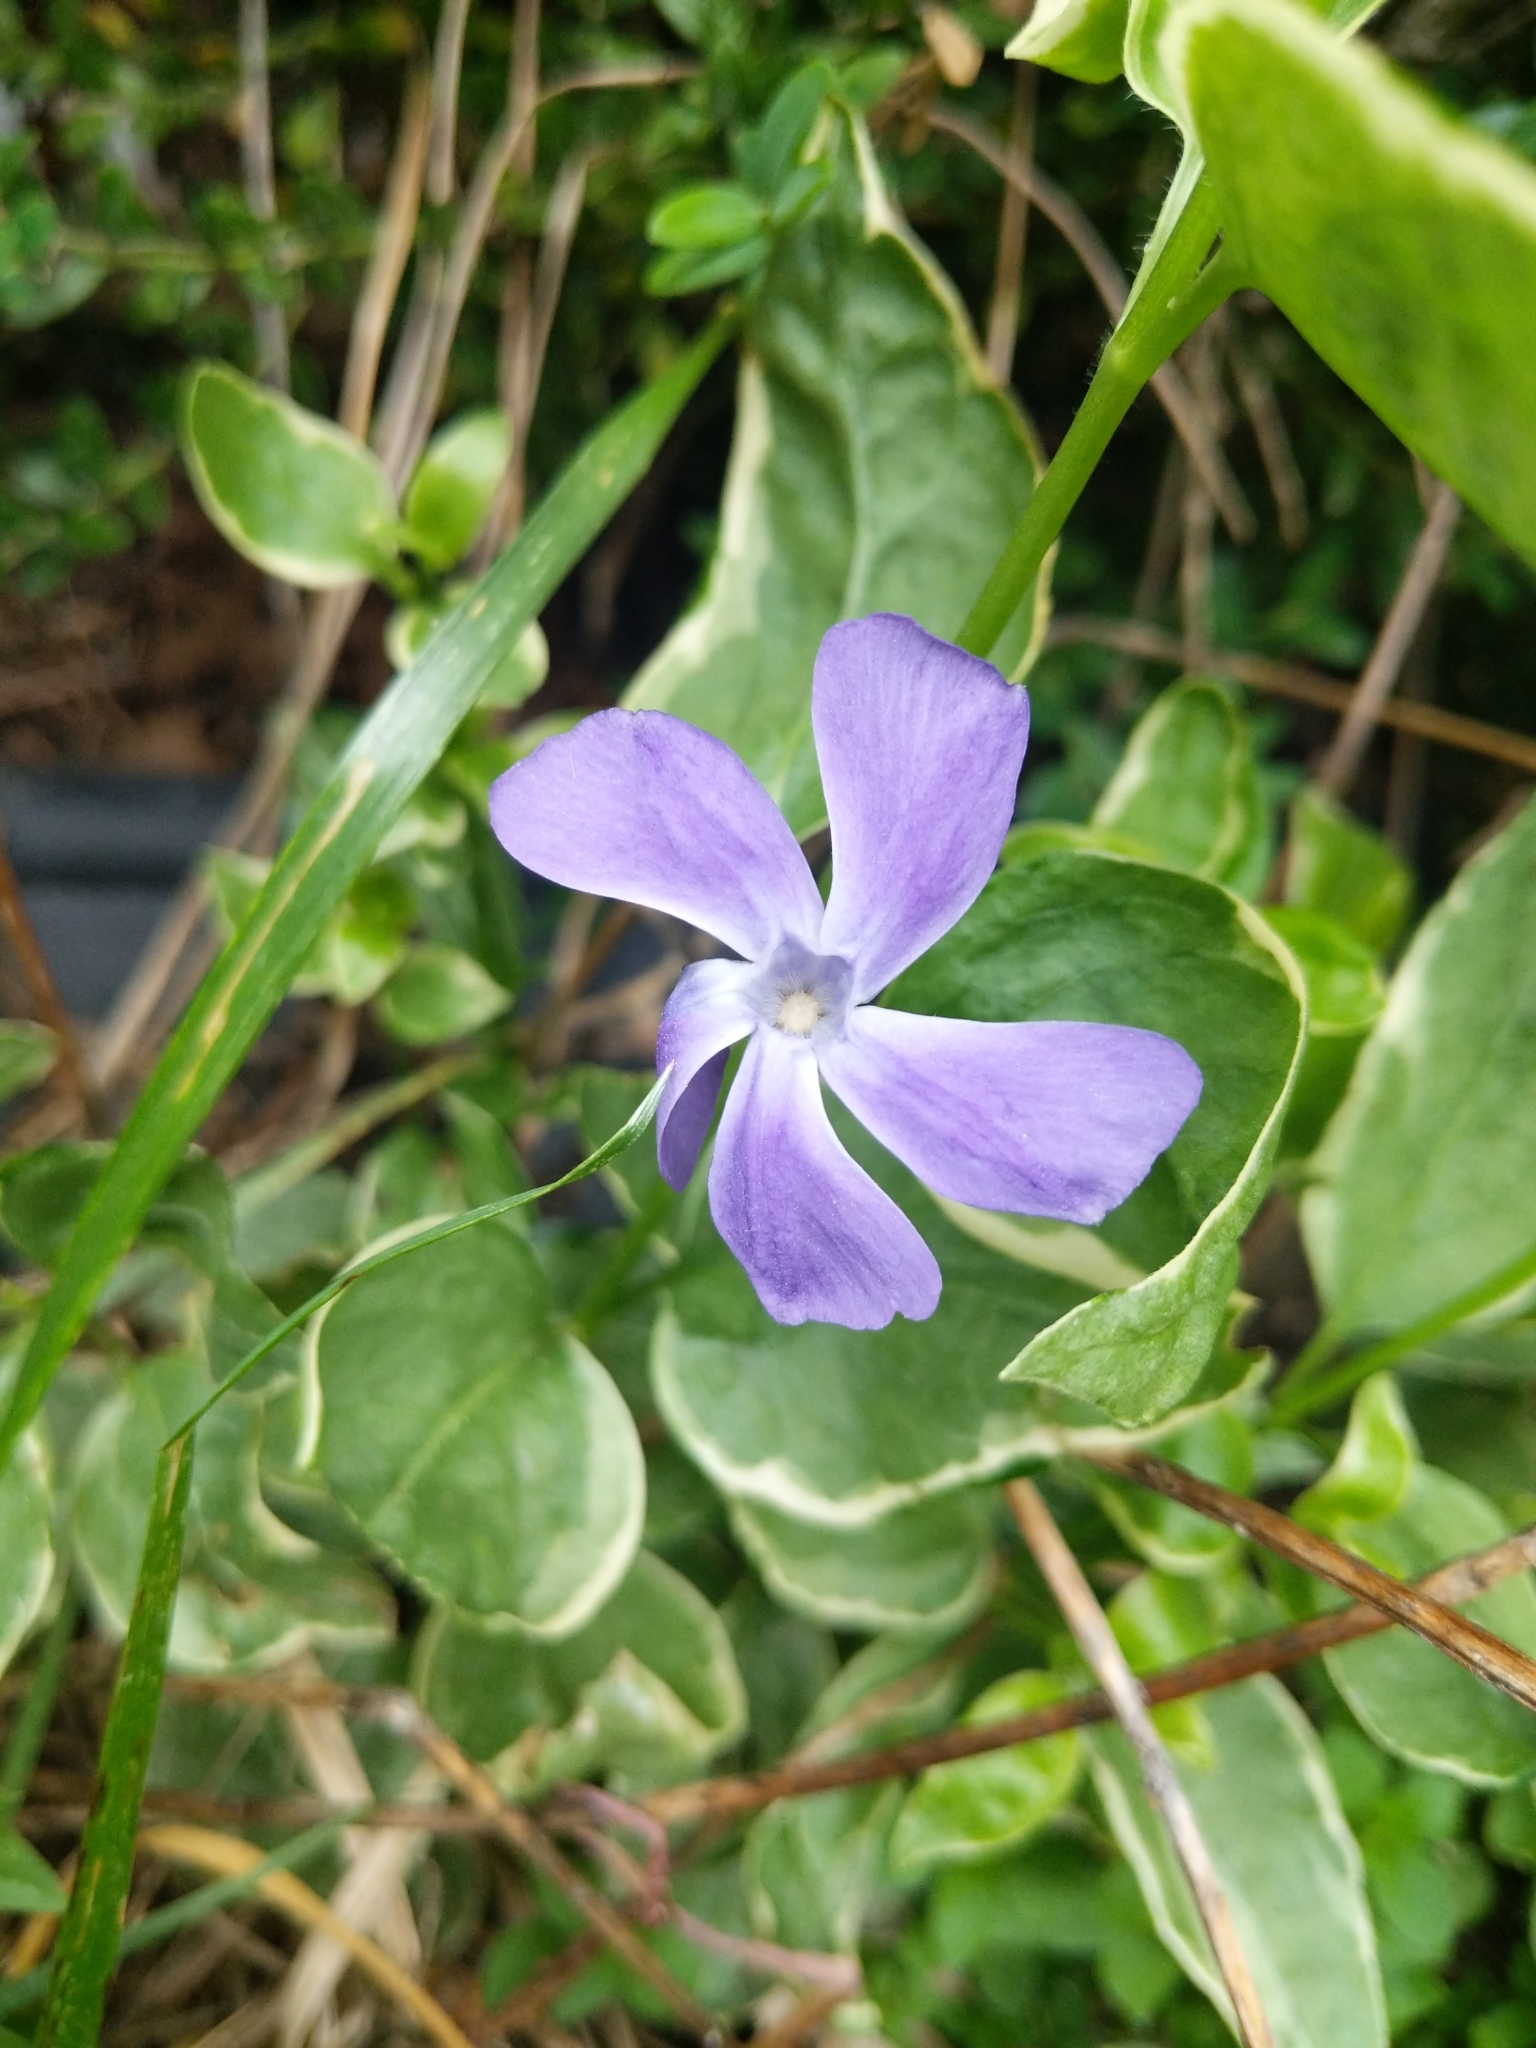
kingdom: Plantae
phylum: Tracheophyta
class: Magnoliopsida
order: Gentianales
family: Apocynaceae
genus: Vinca
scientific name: Vinca major
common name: Greater periwinkle
